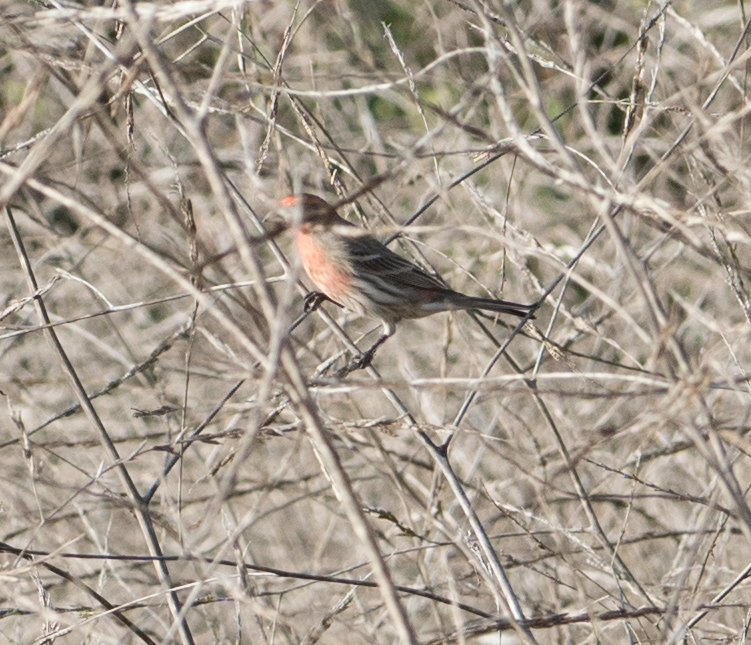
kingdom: Animalia
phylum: Chordata
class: Aves
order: Passeriformes
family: Fringillidae
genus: Haemorhous
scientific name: Haemorhous mexicanus
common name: House finch
